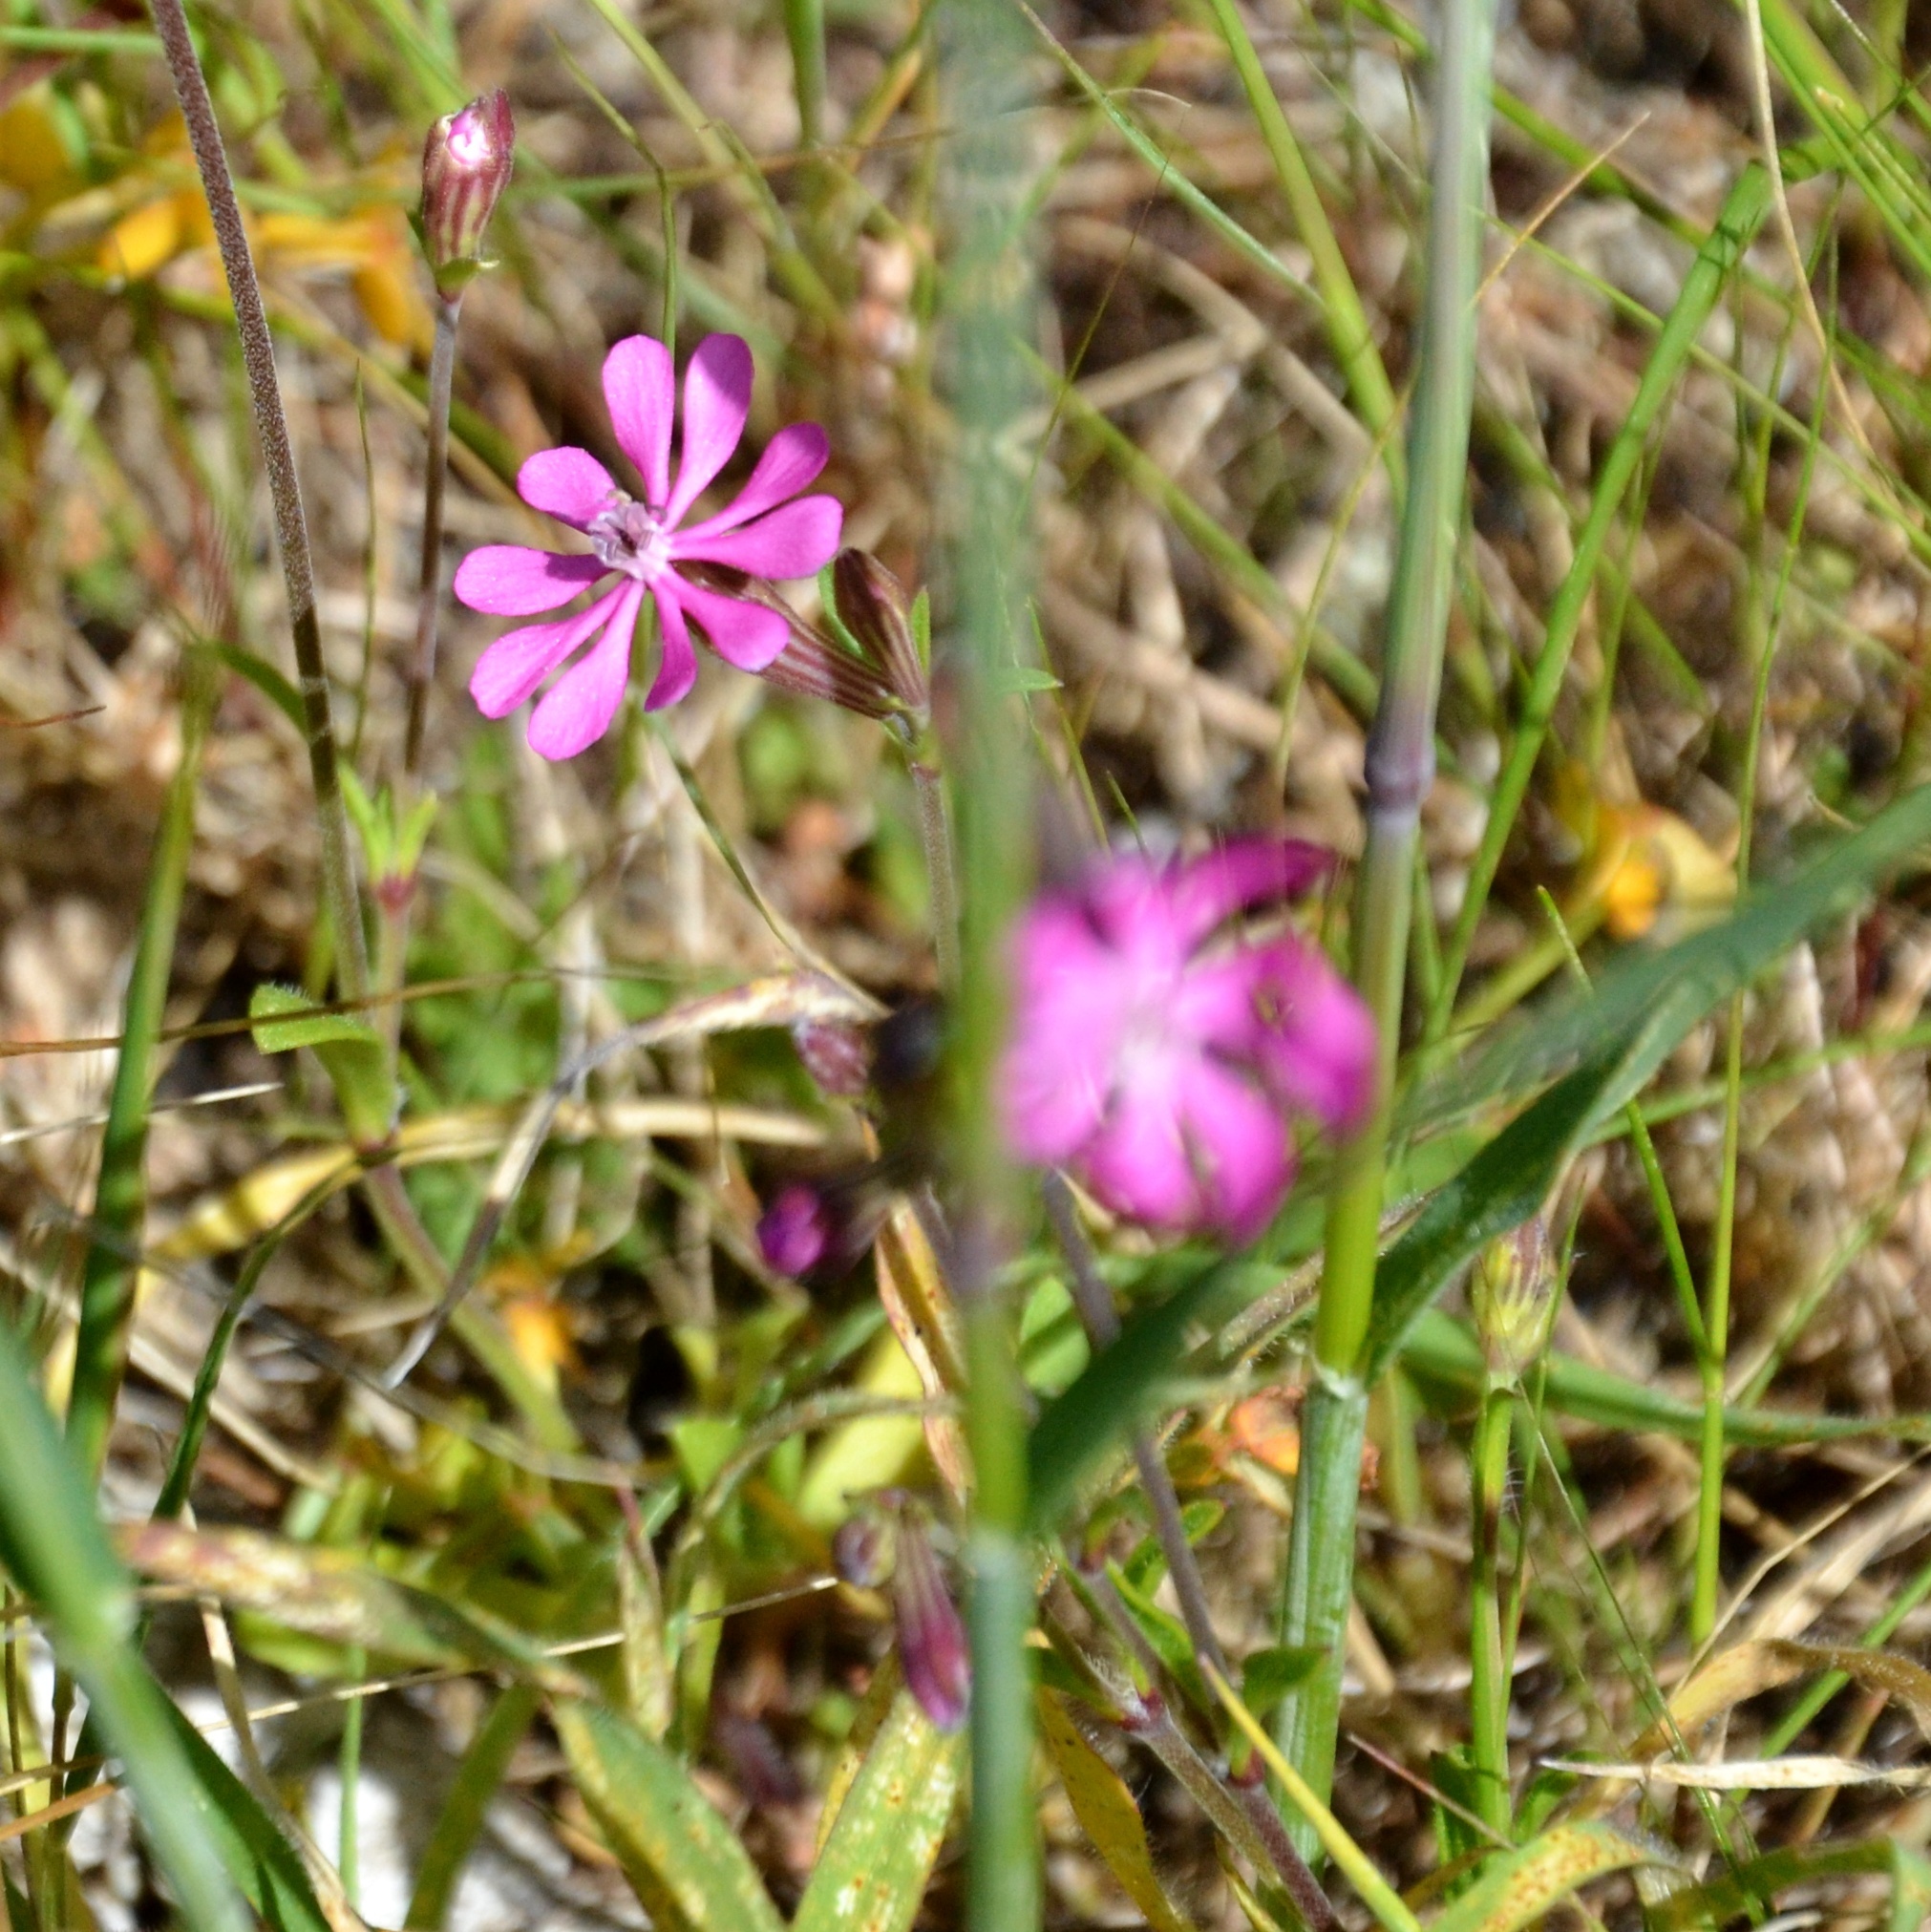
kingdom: Plantae
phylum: Tracheophyta
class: Magnoliopsida
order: Caryophyllales
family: Caryophyllaceae
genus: Silene
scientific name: Silene colorata
